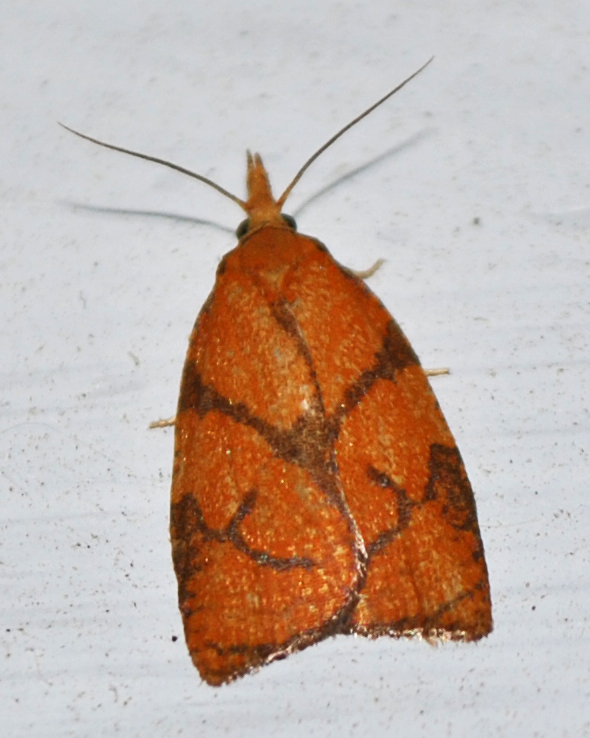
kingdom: Animalia
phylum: Arthropoda
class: Insecta
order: Lepidoptera
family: Tortricidae
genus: Cenopis
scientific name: Cenopis reticulatana
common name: Reticulated fruitworm moth
